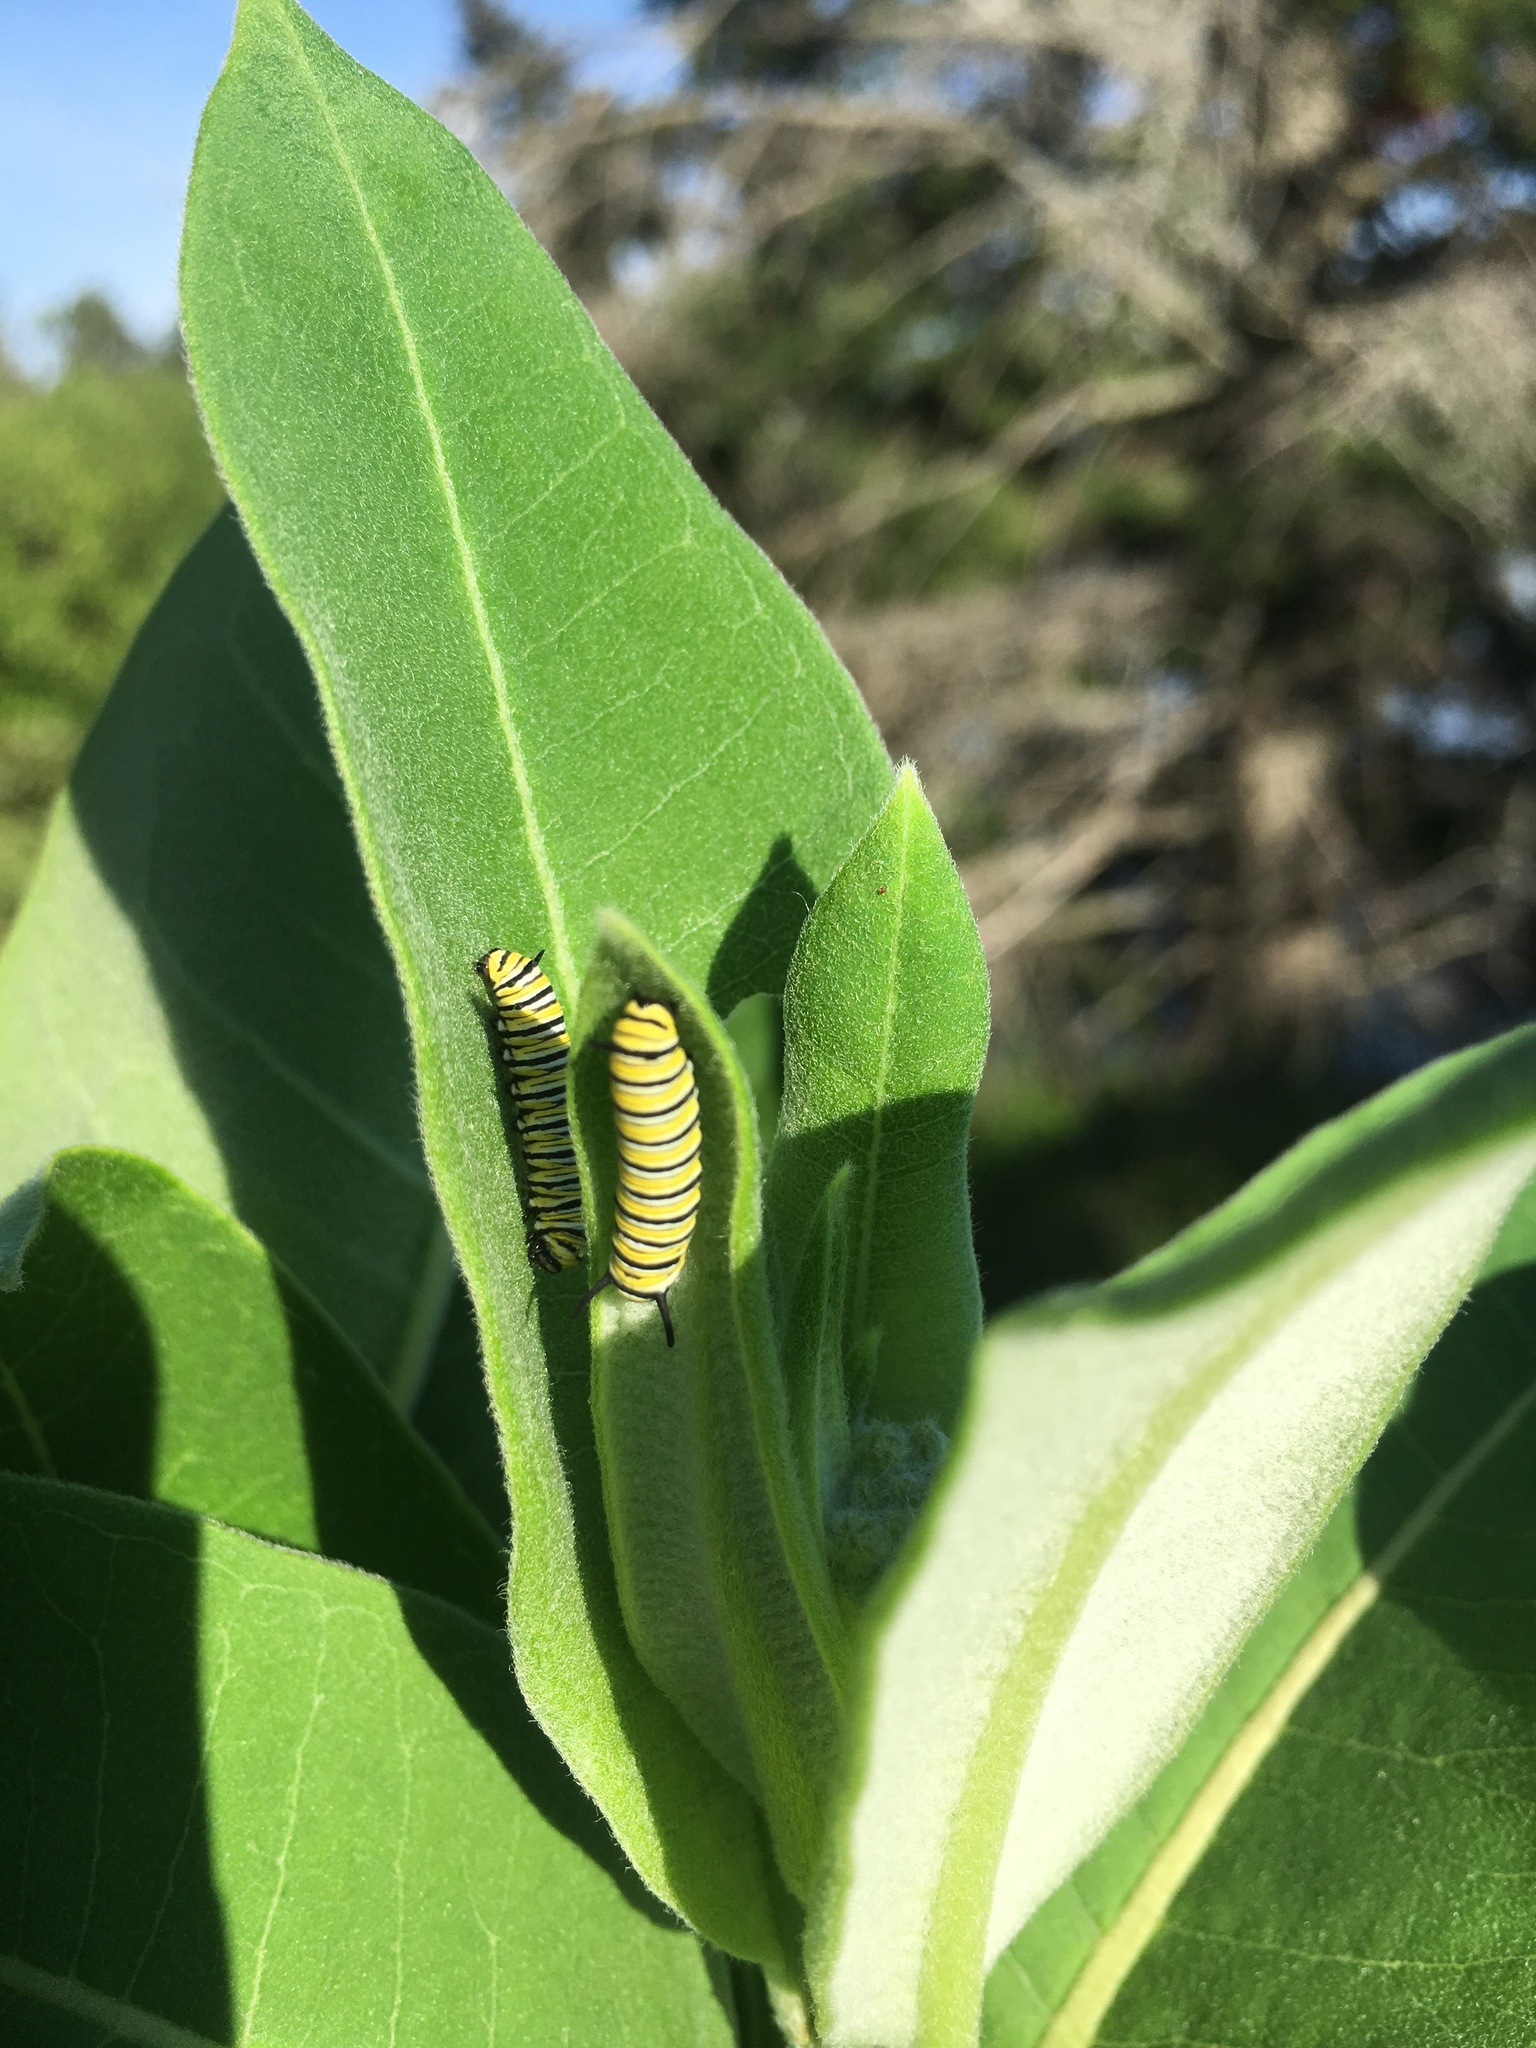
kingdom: Animalia
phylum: Arthropoda
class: Insecta
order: Lepidoptera
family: Nymphalidae
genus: Danaus
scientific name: Danaus plexippus
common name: Monarch
